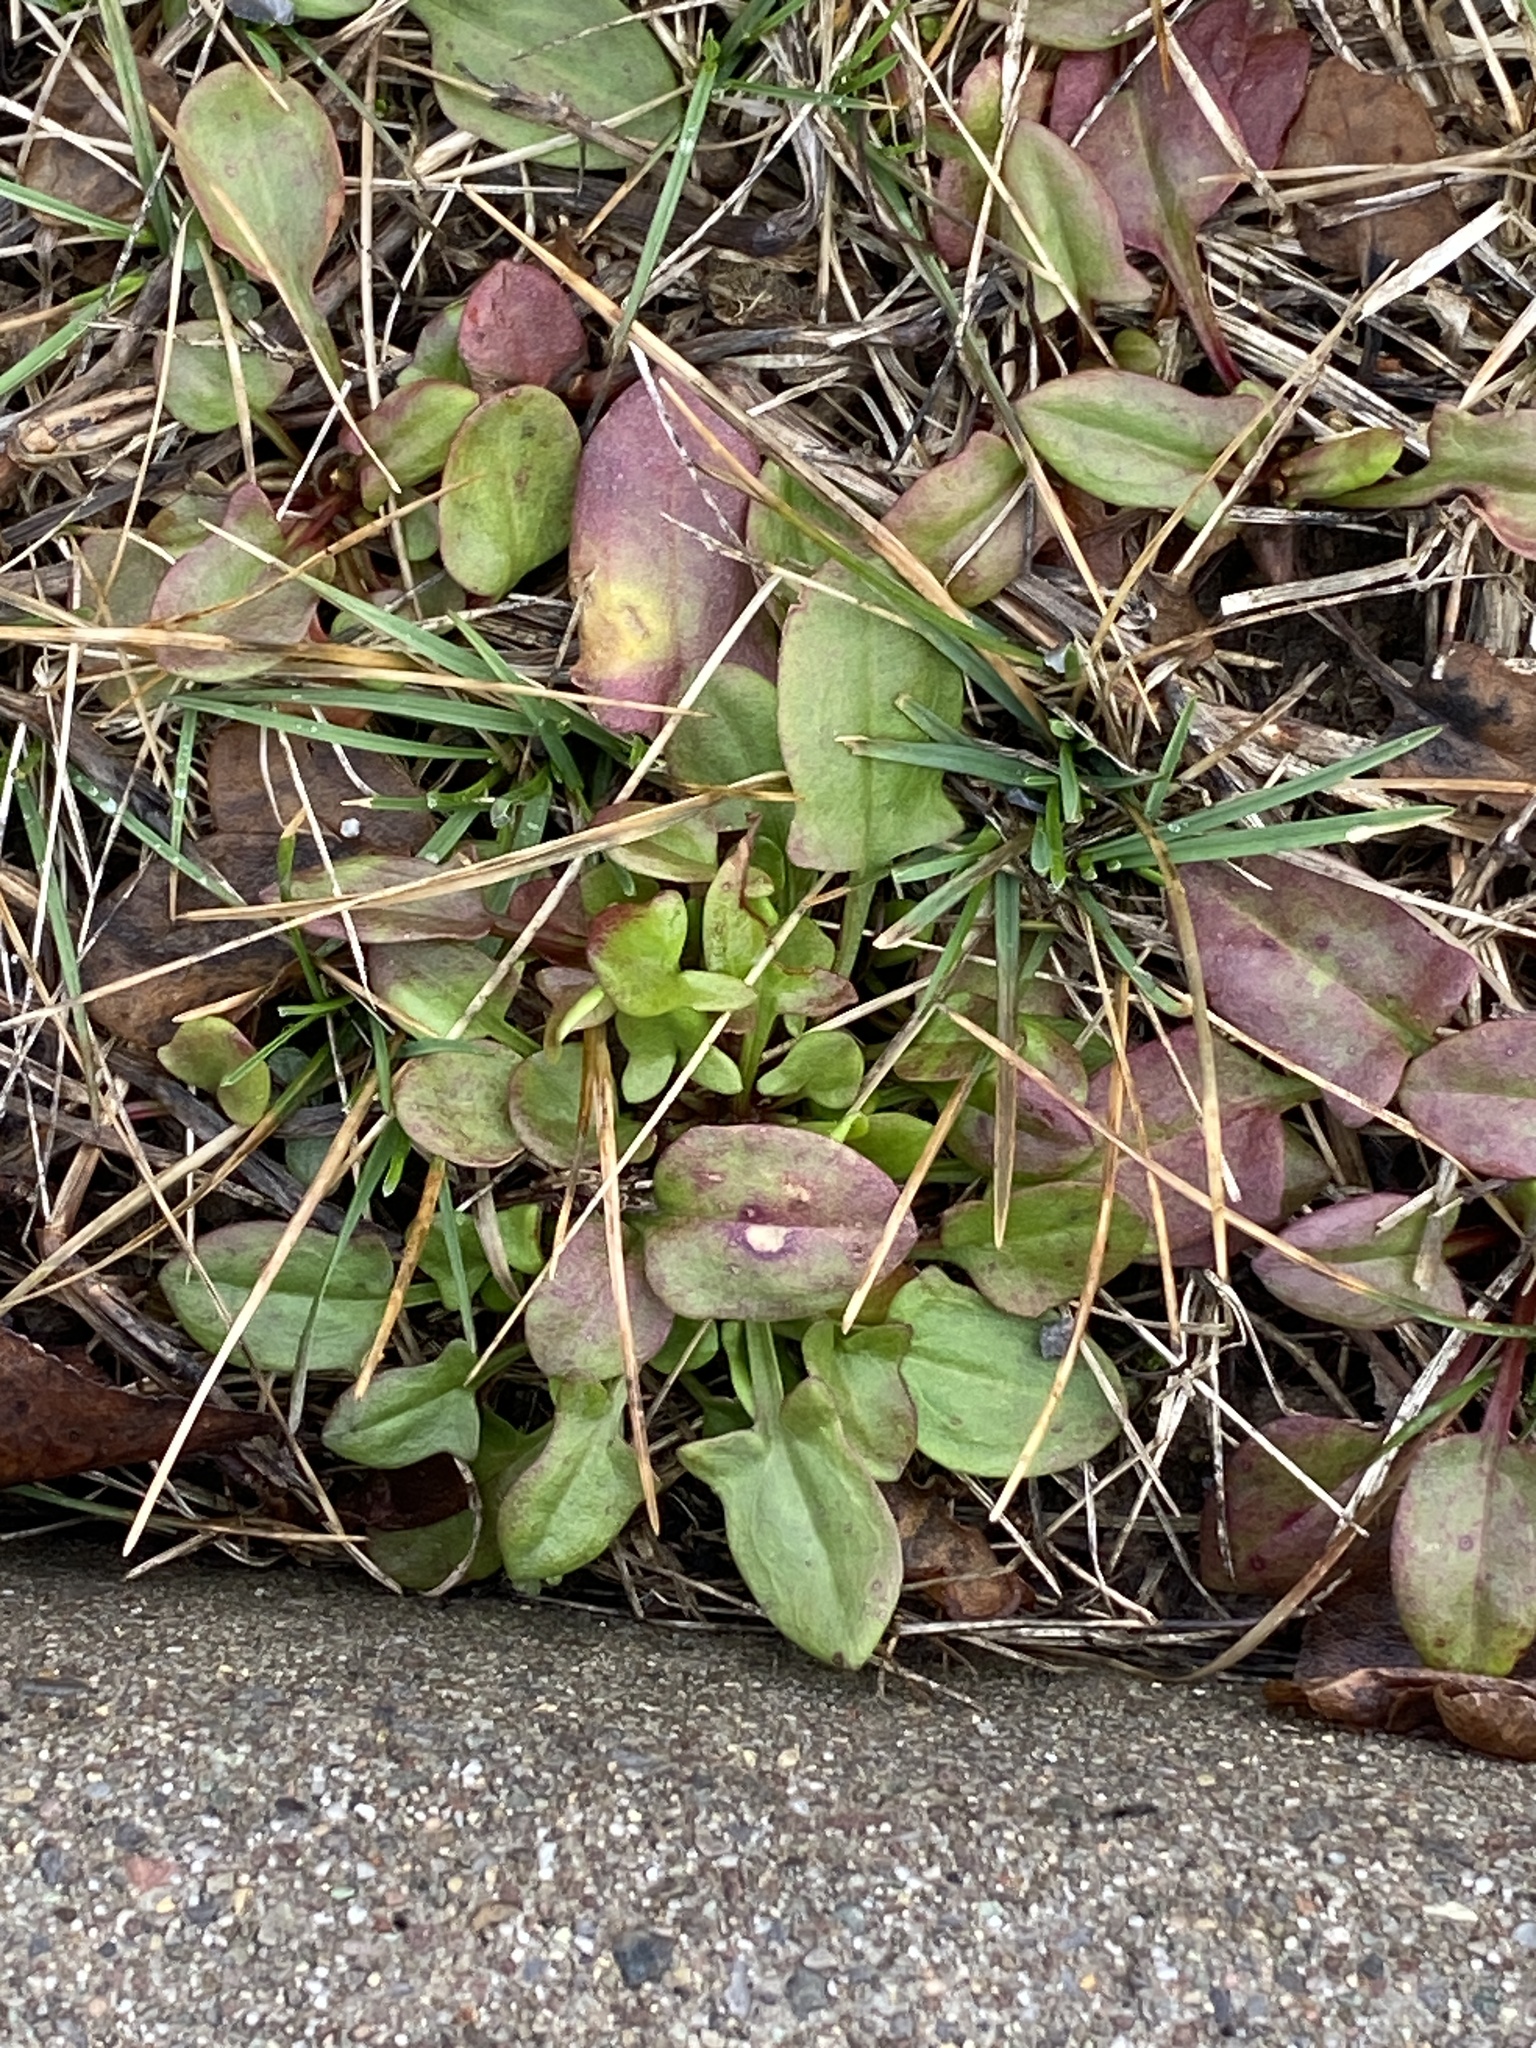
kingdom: Plantae
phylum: Tracheophyta
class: Magnoliopsida
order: Caryophyllales
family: Polygonaceae
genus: Rumex
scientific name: Rumex acetosella
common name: Common sheep sorrel
